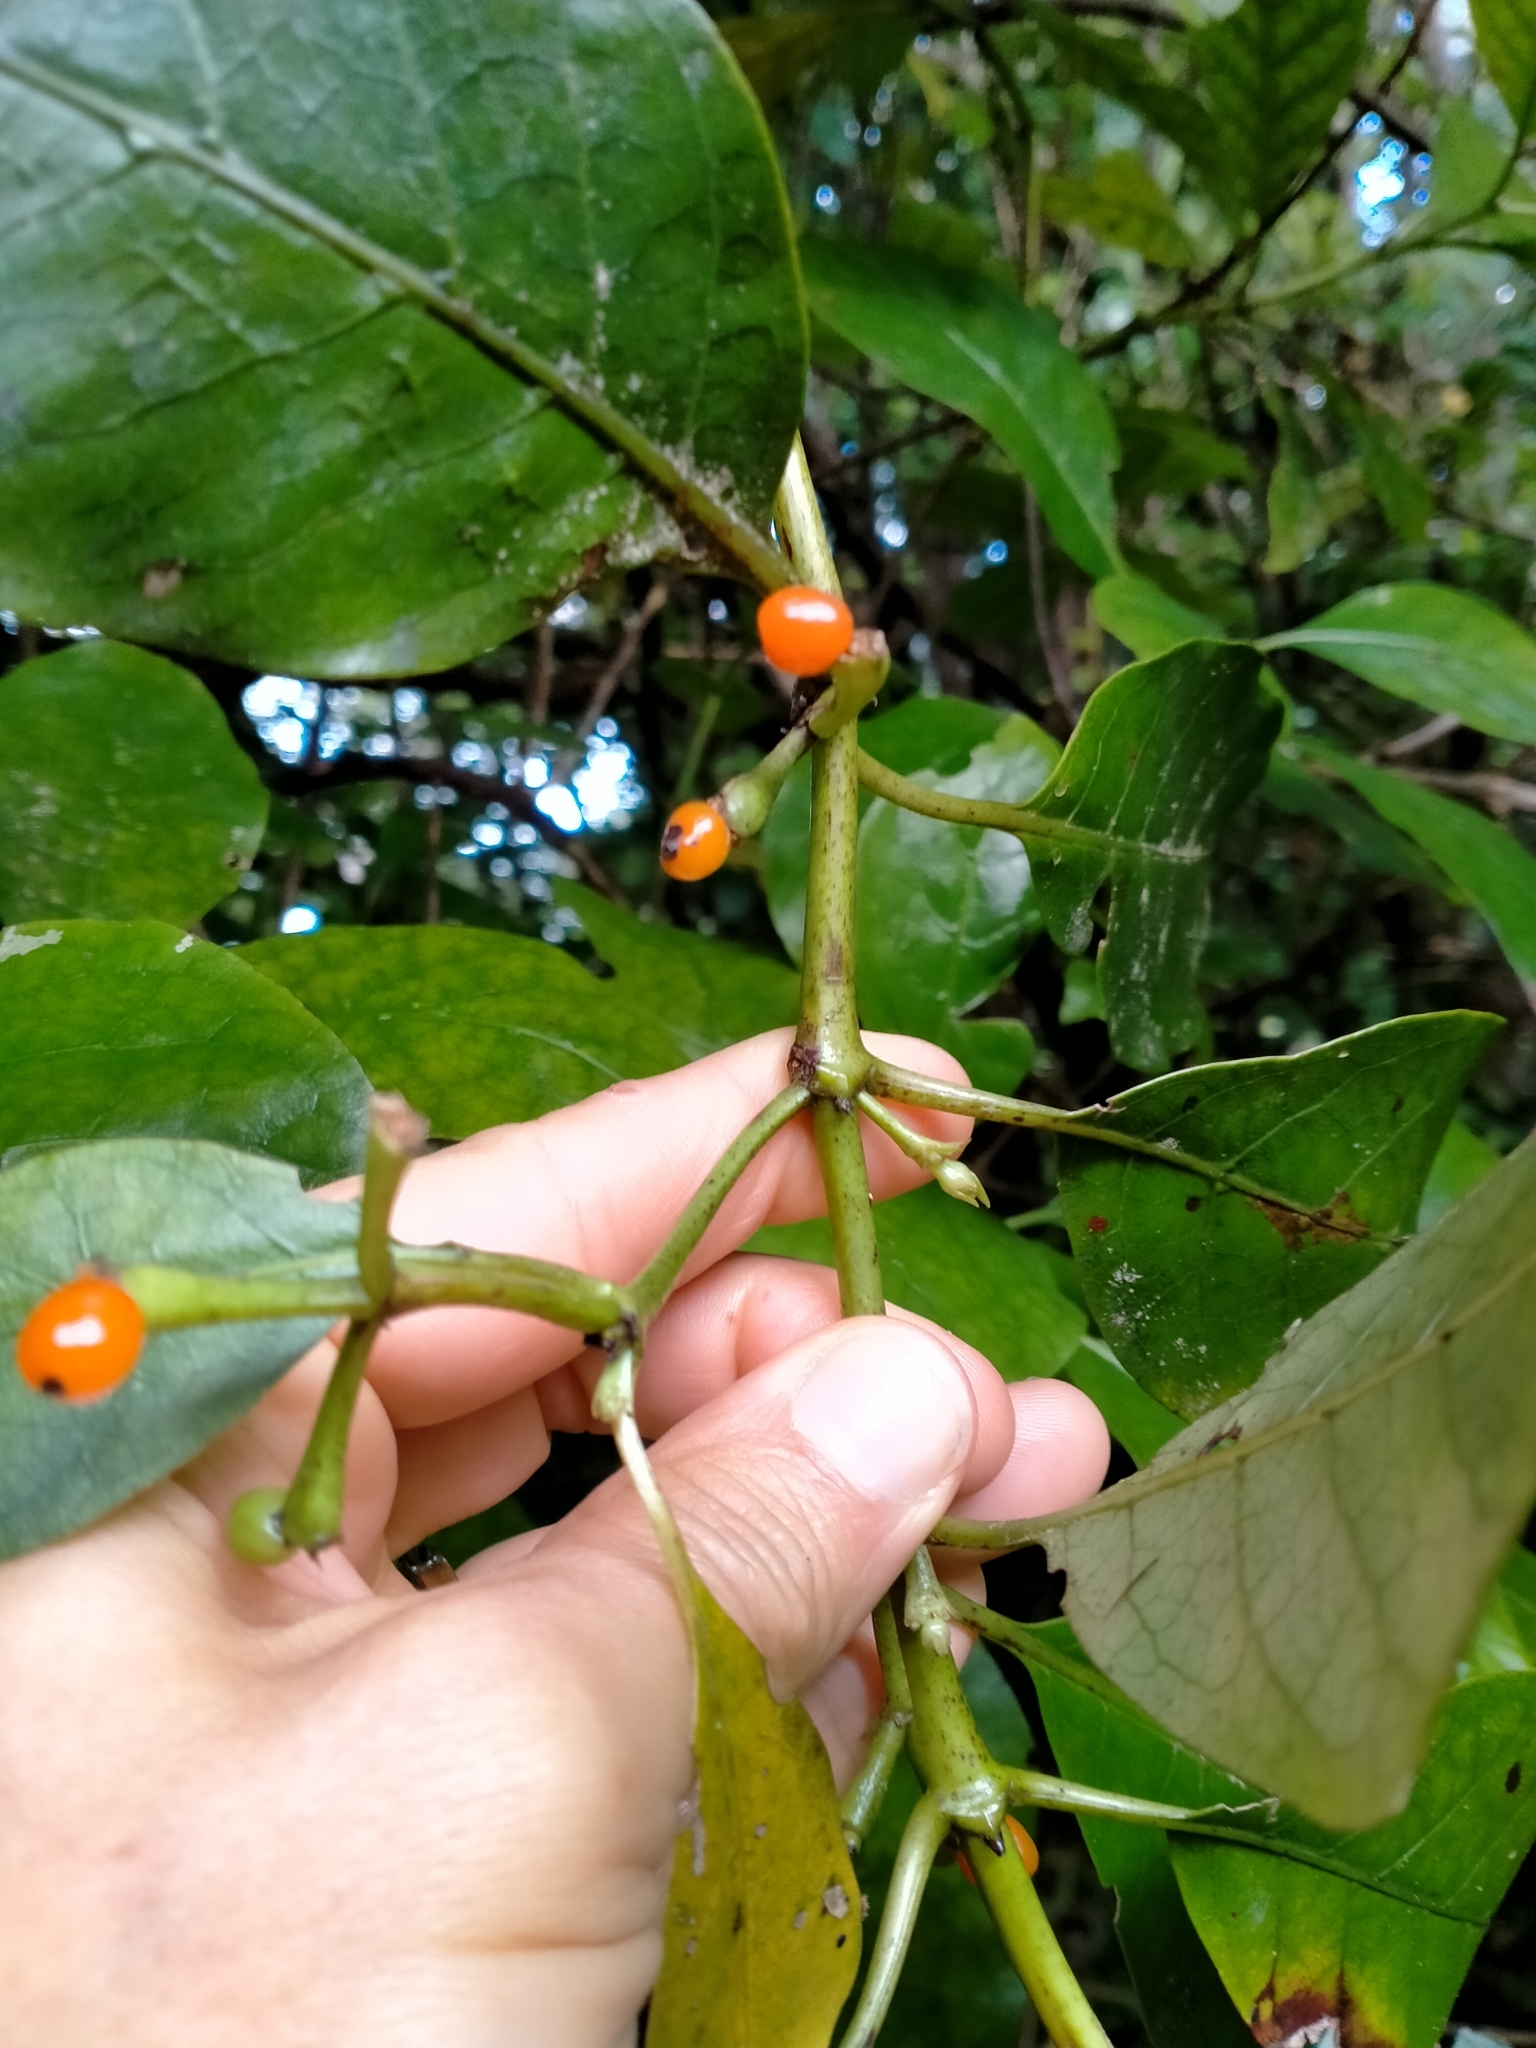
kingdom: Plantae
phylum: Tracheophyta
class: Magnoliopsida
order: Gentianales
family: Rubiaceae
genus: Coprosma
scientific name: Coprosma autumnalis
